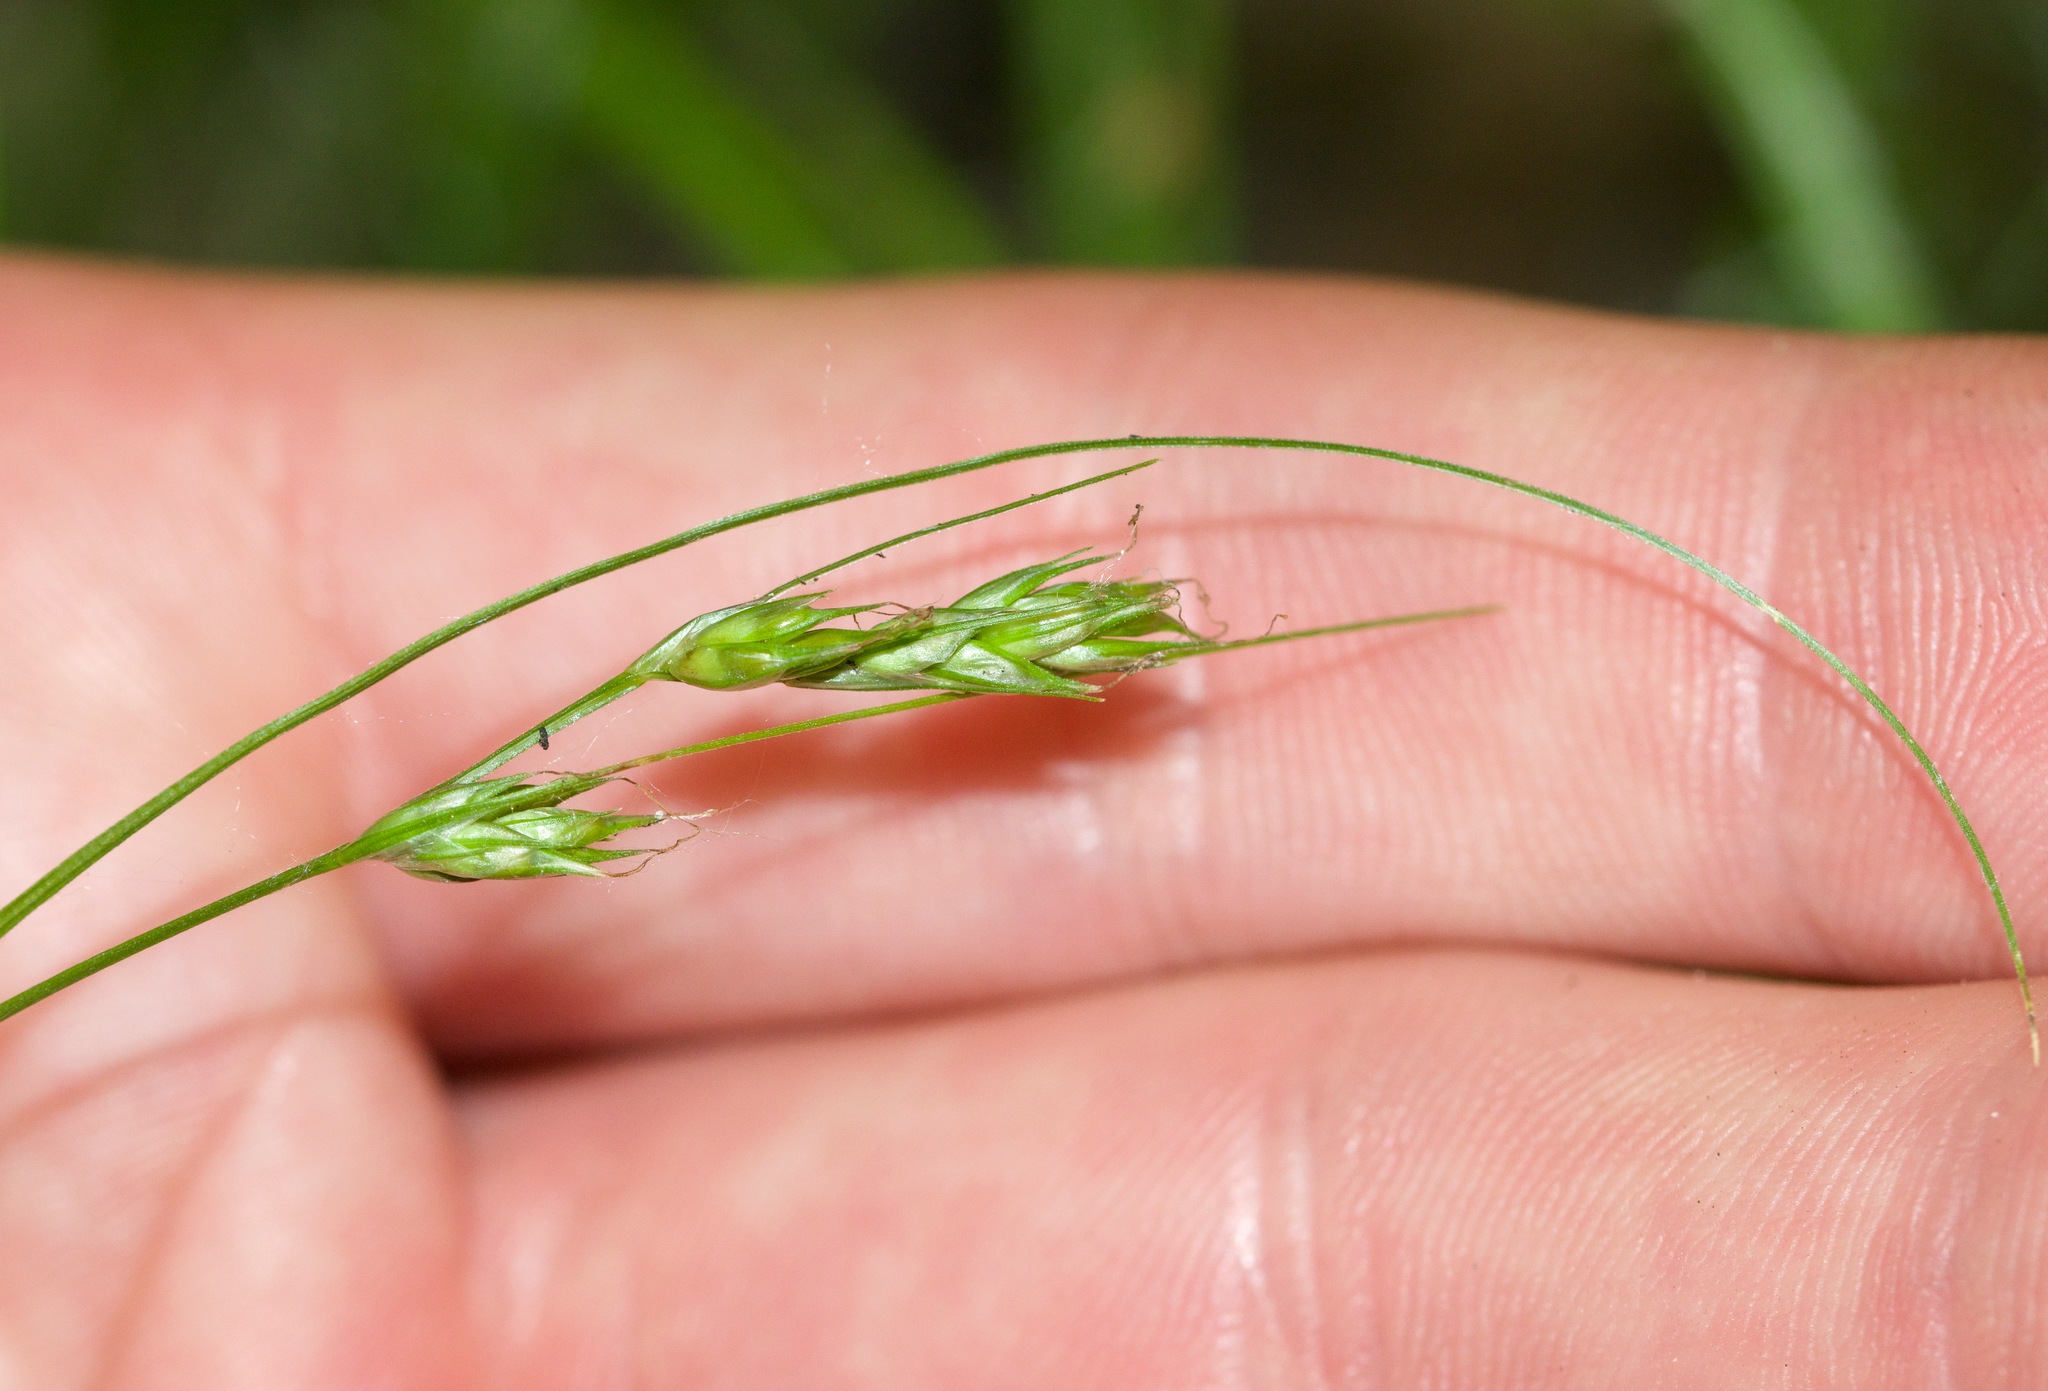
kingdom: Plantae
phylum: Tracheophyta
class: Liliopsida
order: Poales
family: Cyperaceae
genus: Carex
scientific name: Carex deweyana
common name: Dewey's sedge
